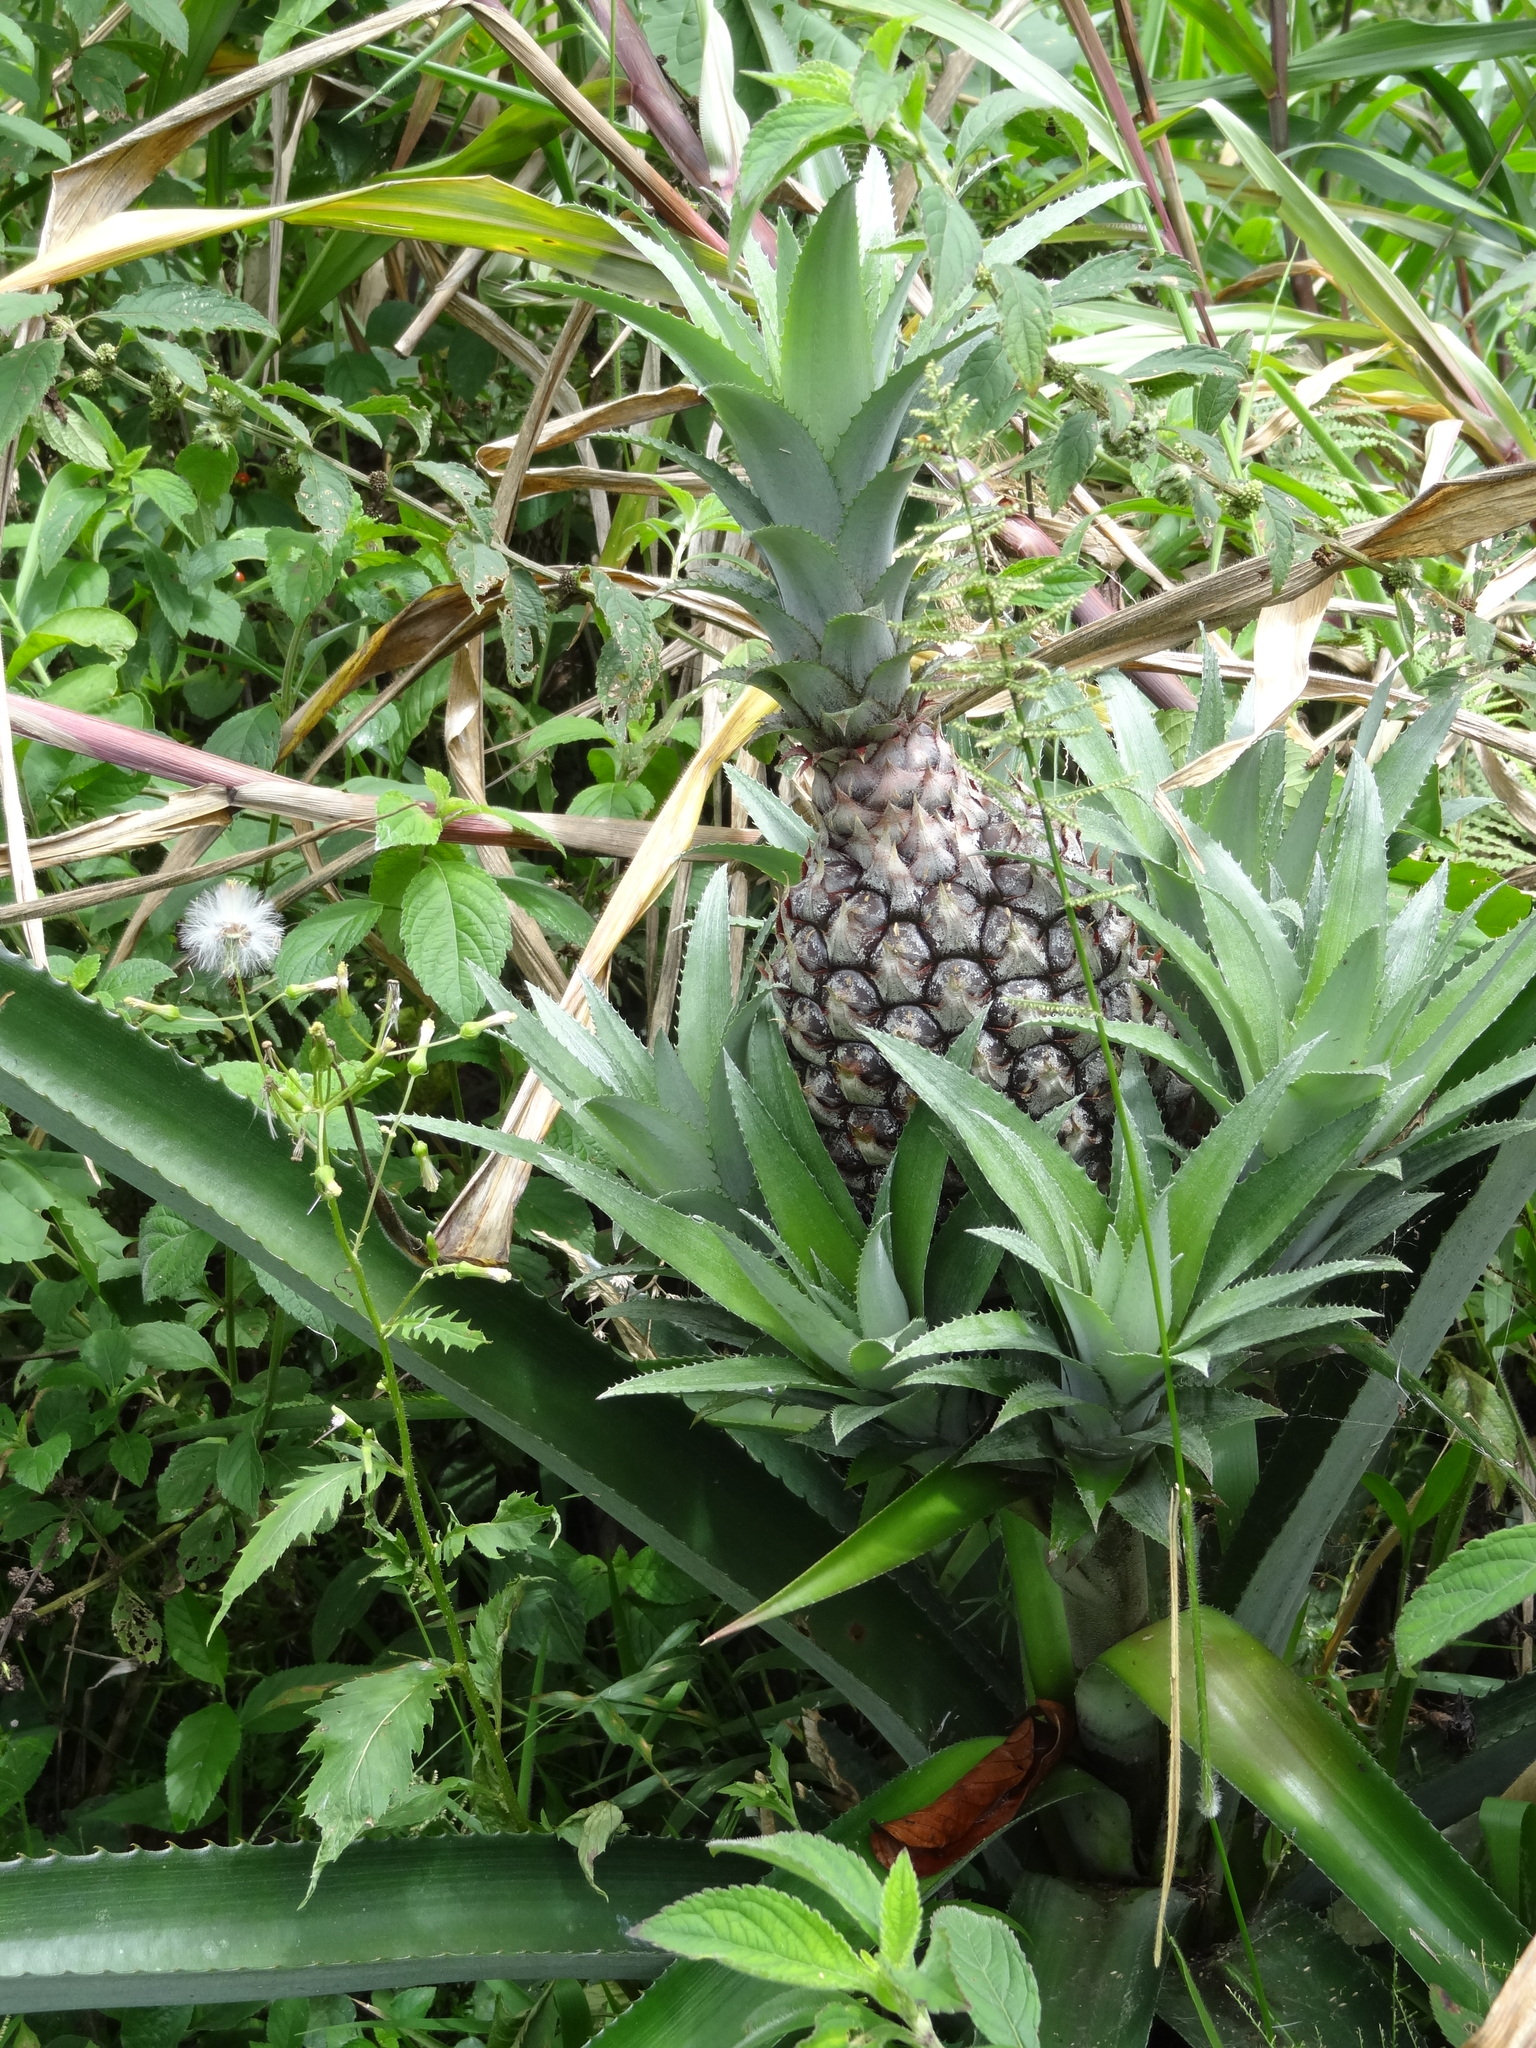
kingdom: Plantae
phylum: Tracheophyta
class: Liliopsida
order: Poales
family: Bromeliaceae
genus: Ananas
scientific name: Ananas comosus
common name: Pineapple
